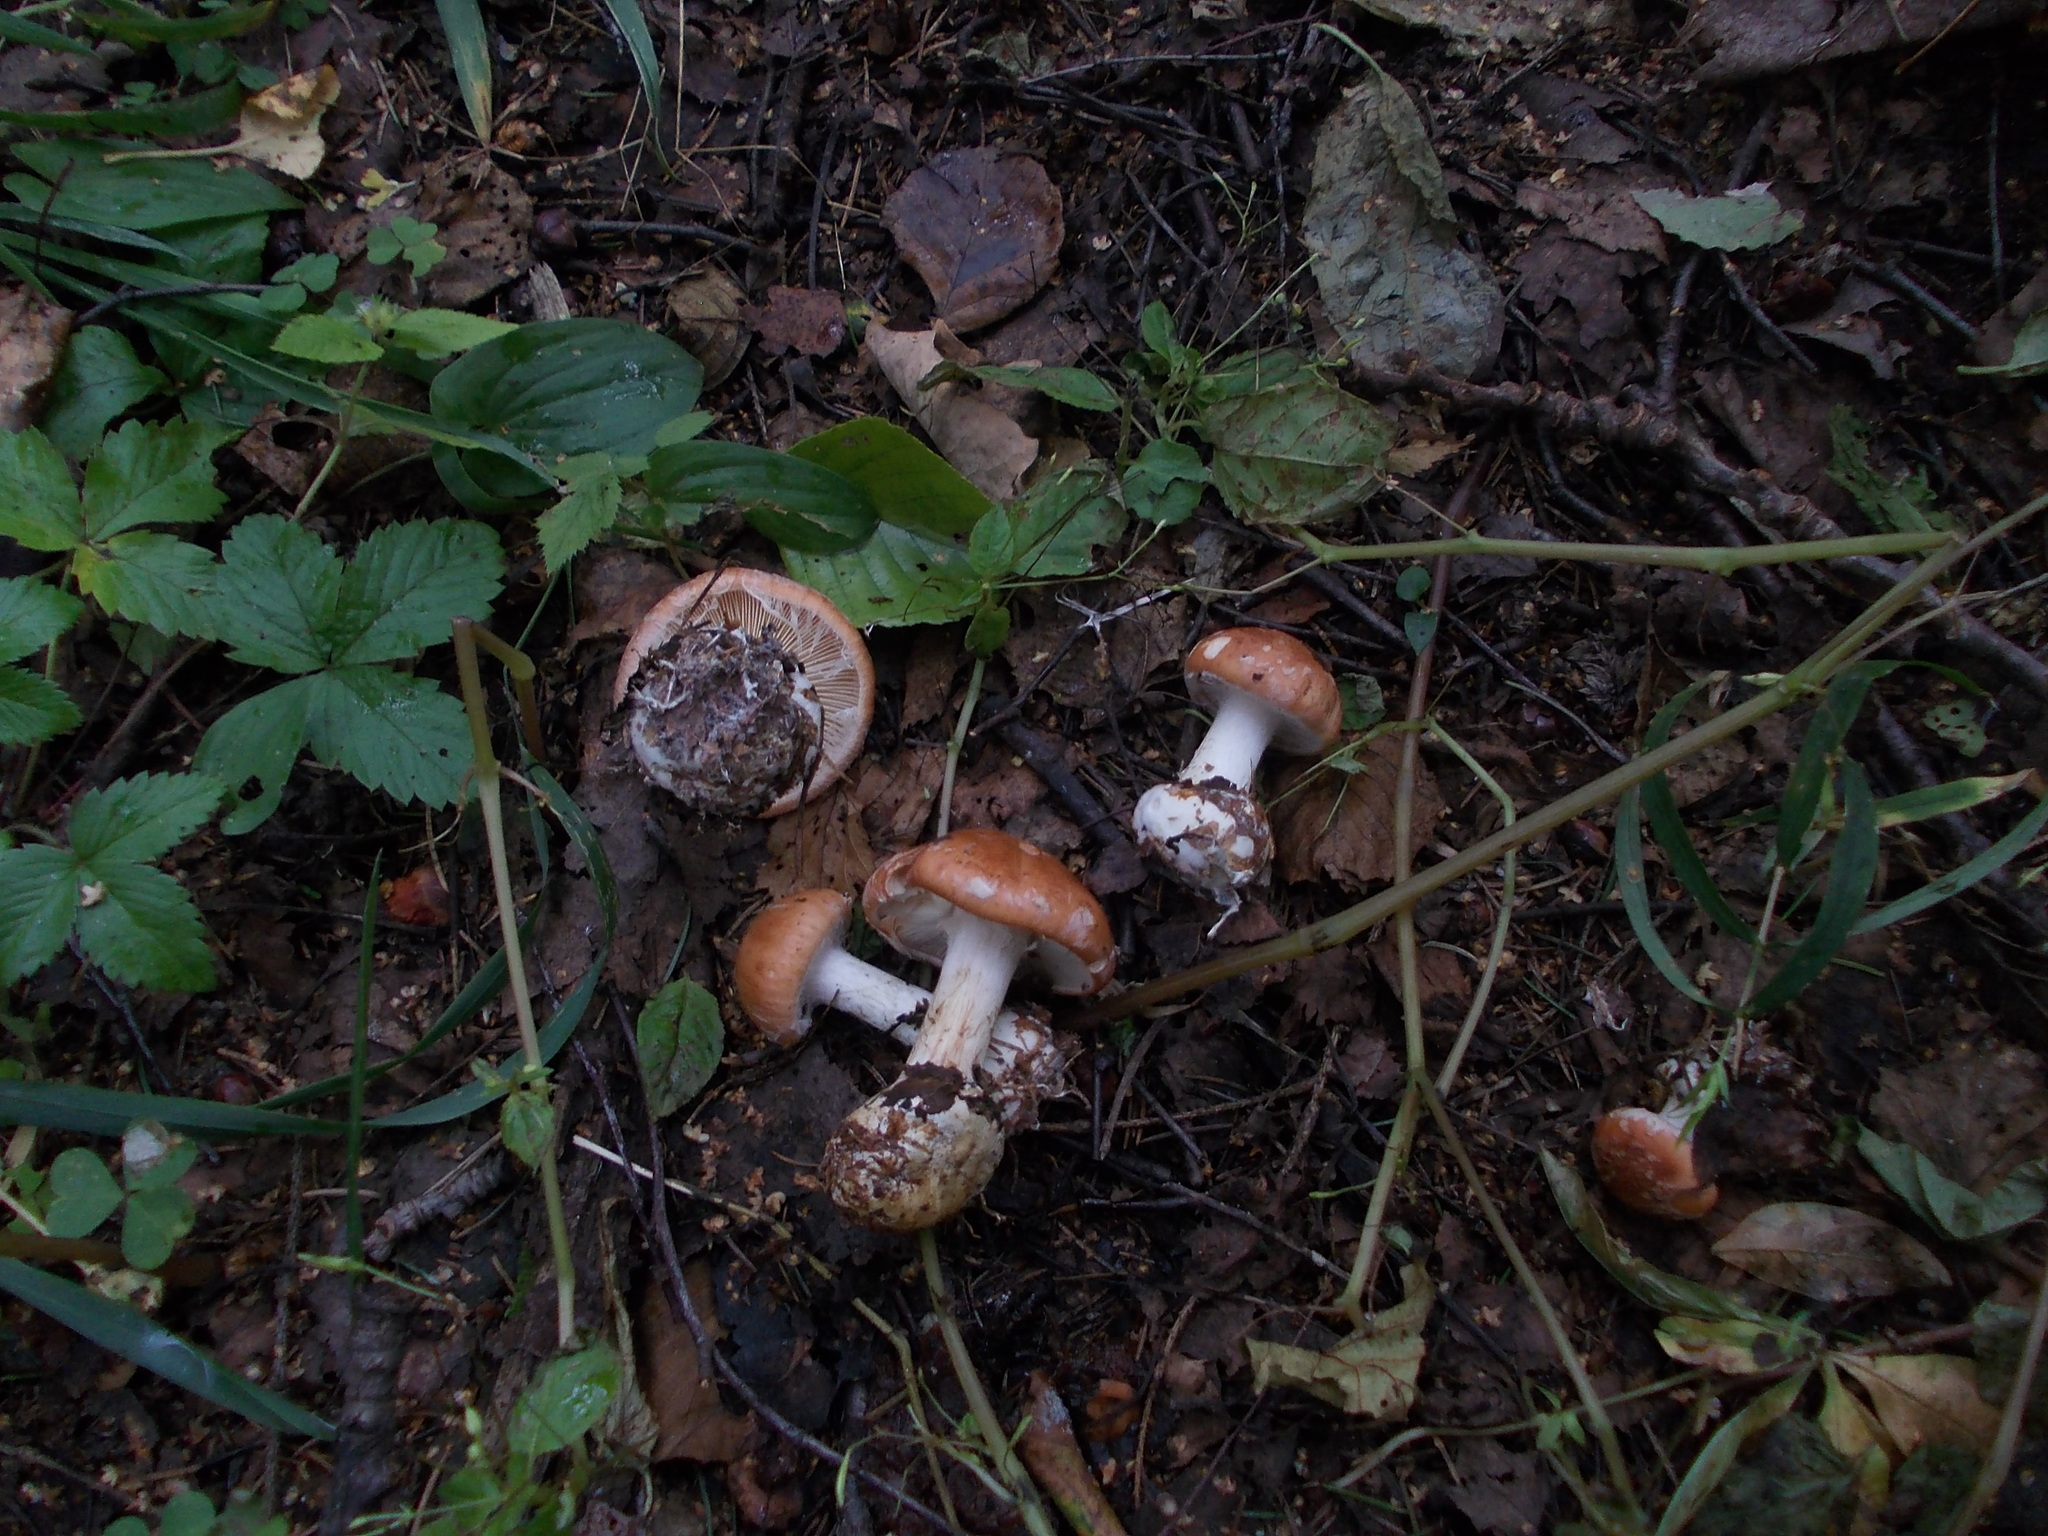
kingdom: Fungi
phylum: Basidiomycota
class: Agaricomycetes
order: Agaricales
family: Tricholomataceae
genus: Leucocortinarius
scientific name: Leucocortinarius bulbiger
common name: White webcap
